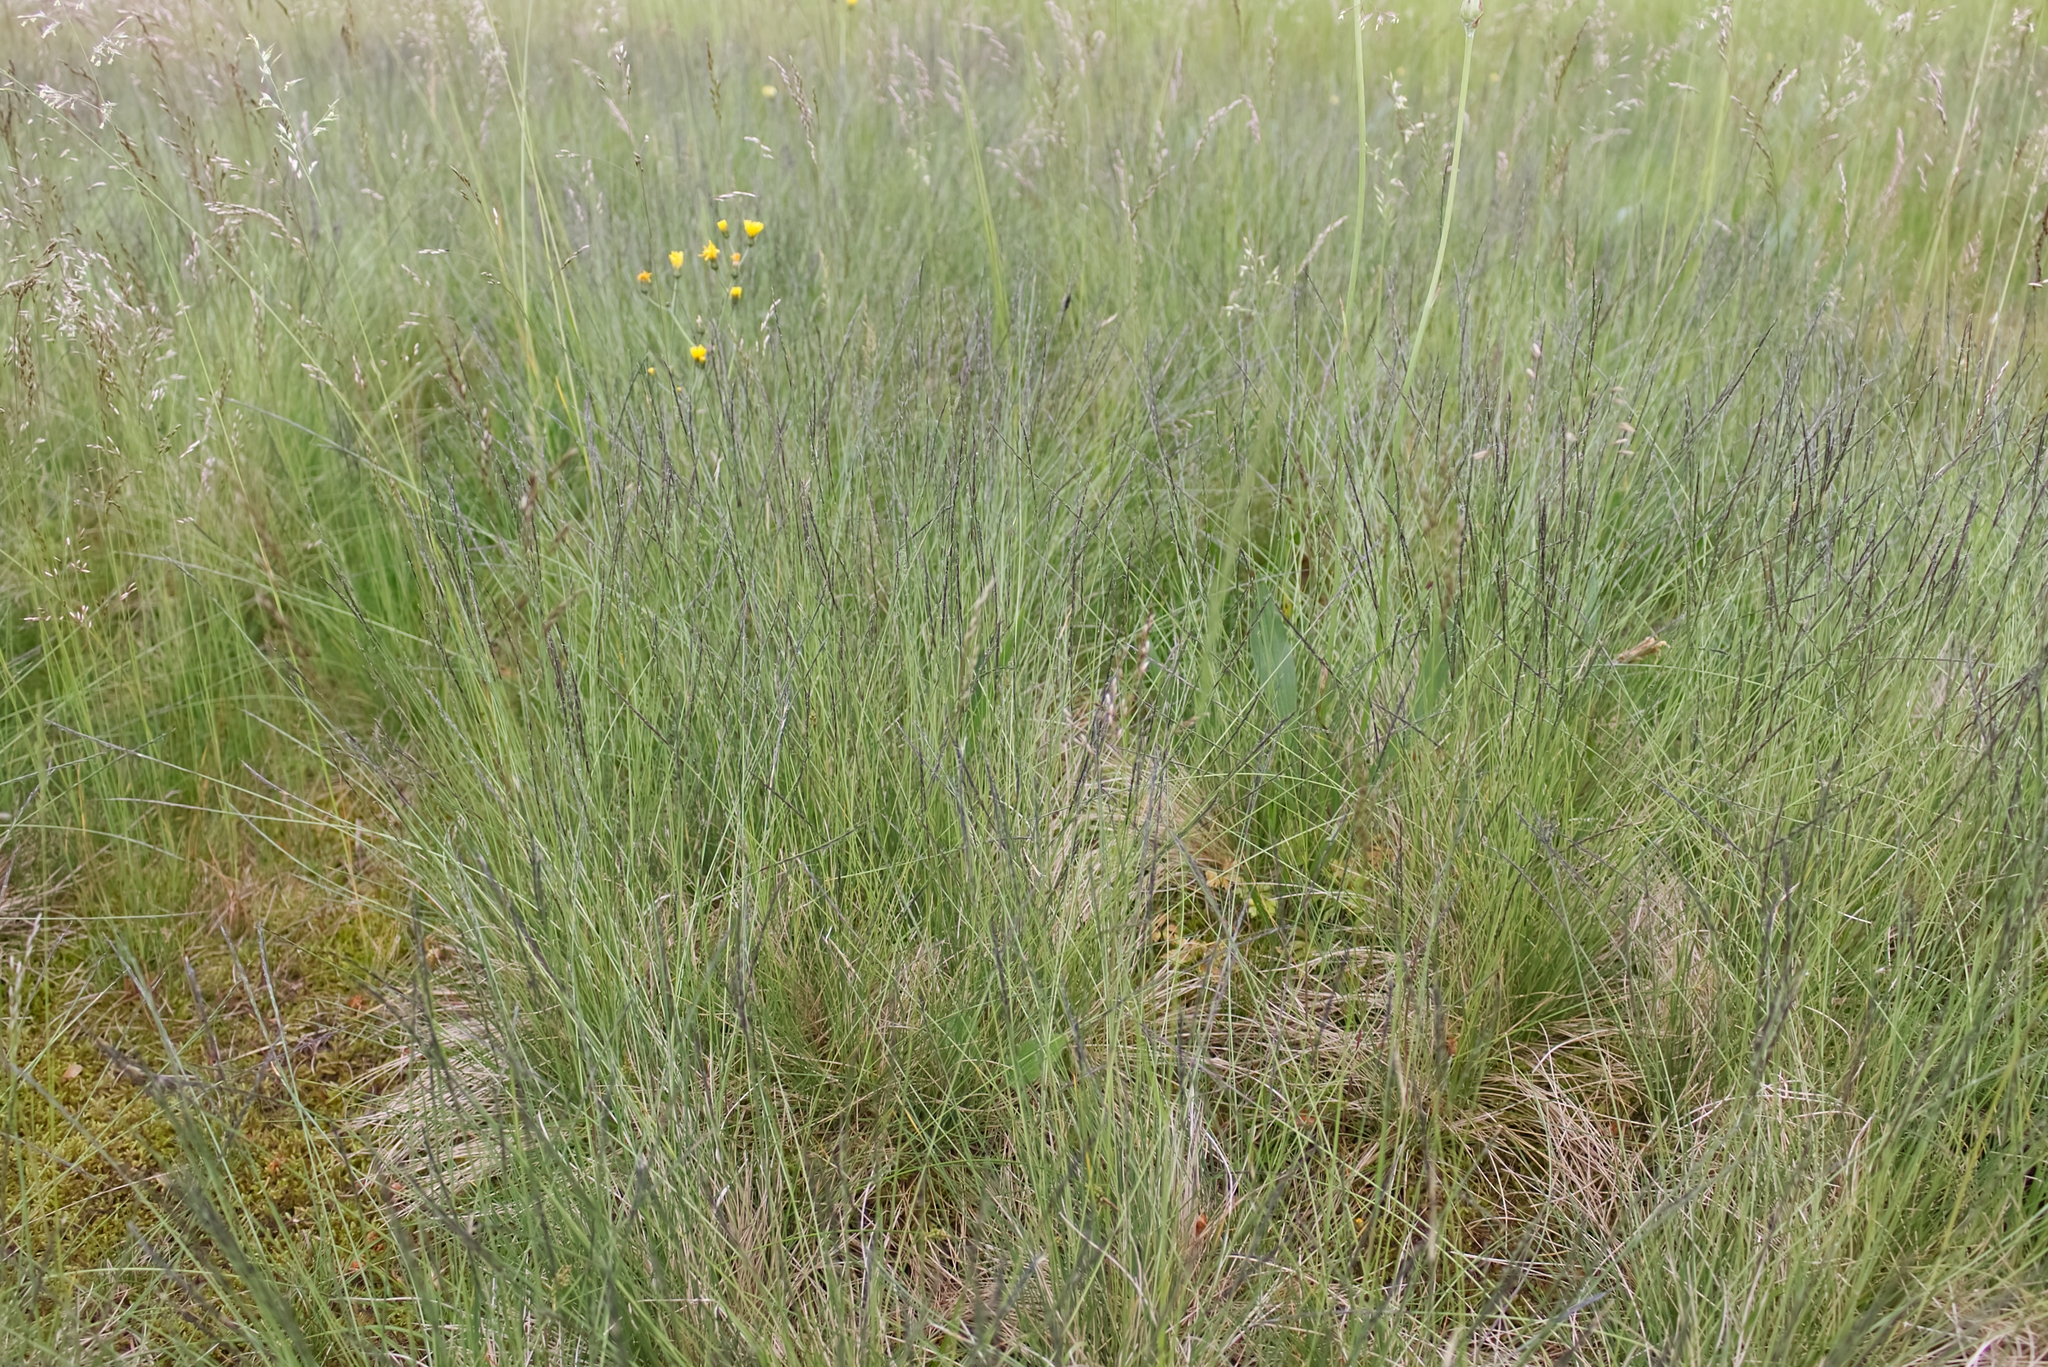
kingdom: Plantae
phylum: Tracheophyta
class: Liliopsida
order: Poales
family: Poaceae
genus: Nardus
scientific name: Nardus stricta
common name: Mat-grass
